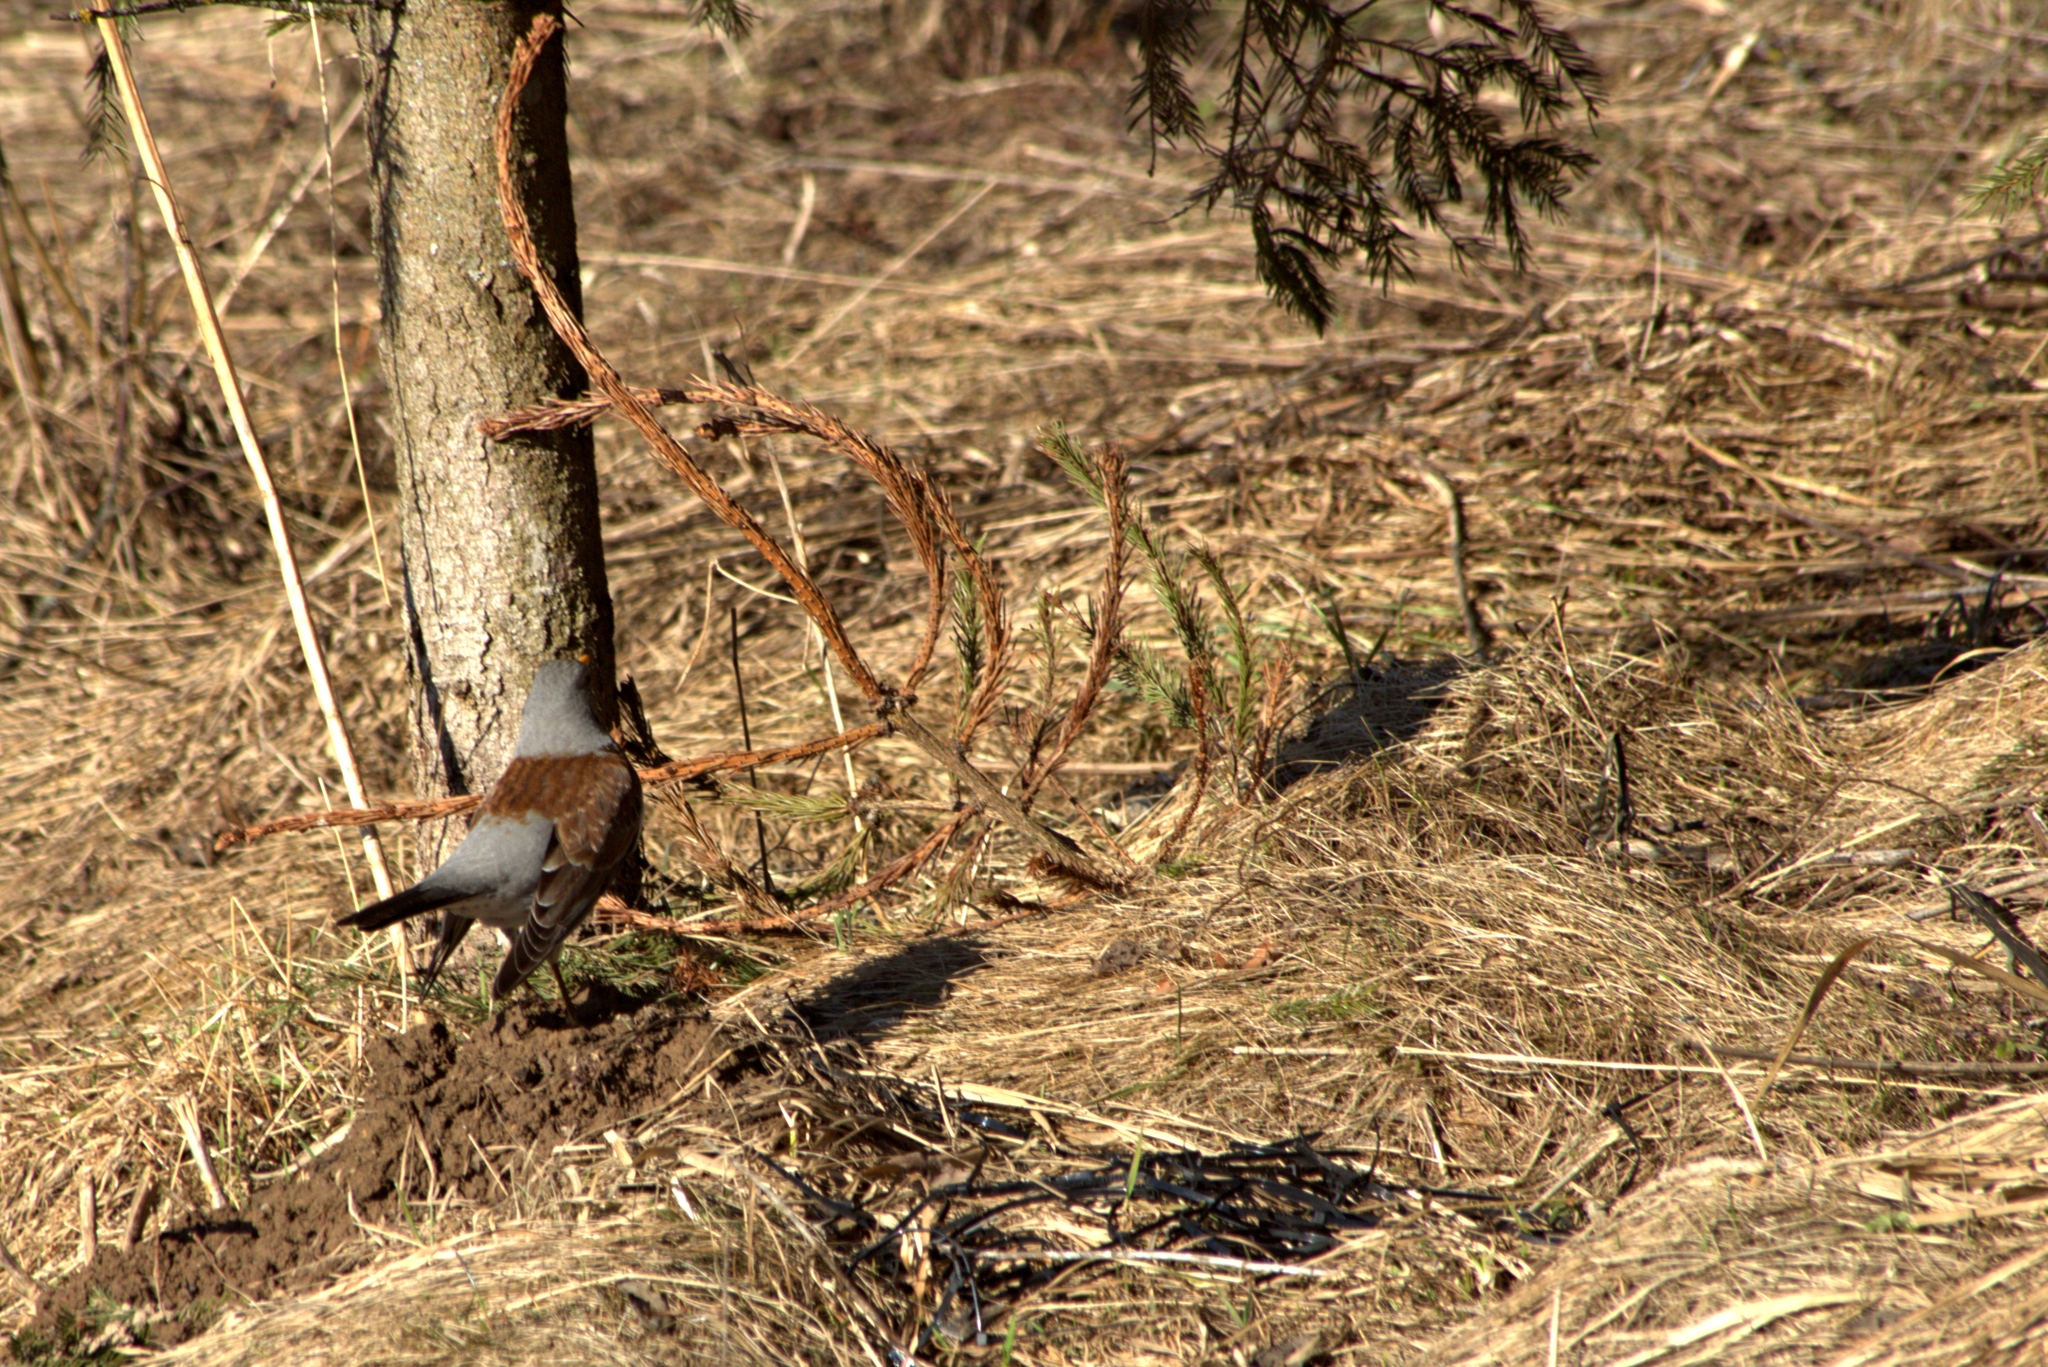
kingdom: Animalia
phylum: Chordata
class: Aves
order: Passeriformes
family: Turdidae
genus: Turdus
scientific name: Turdus pilaris
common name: Fieldfare
